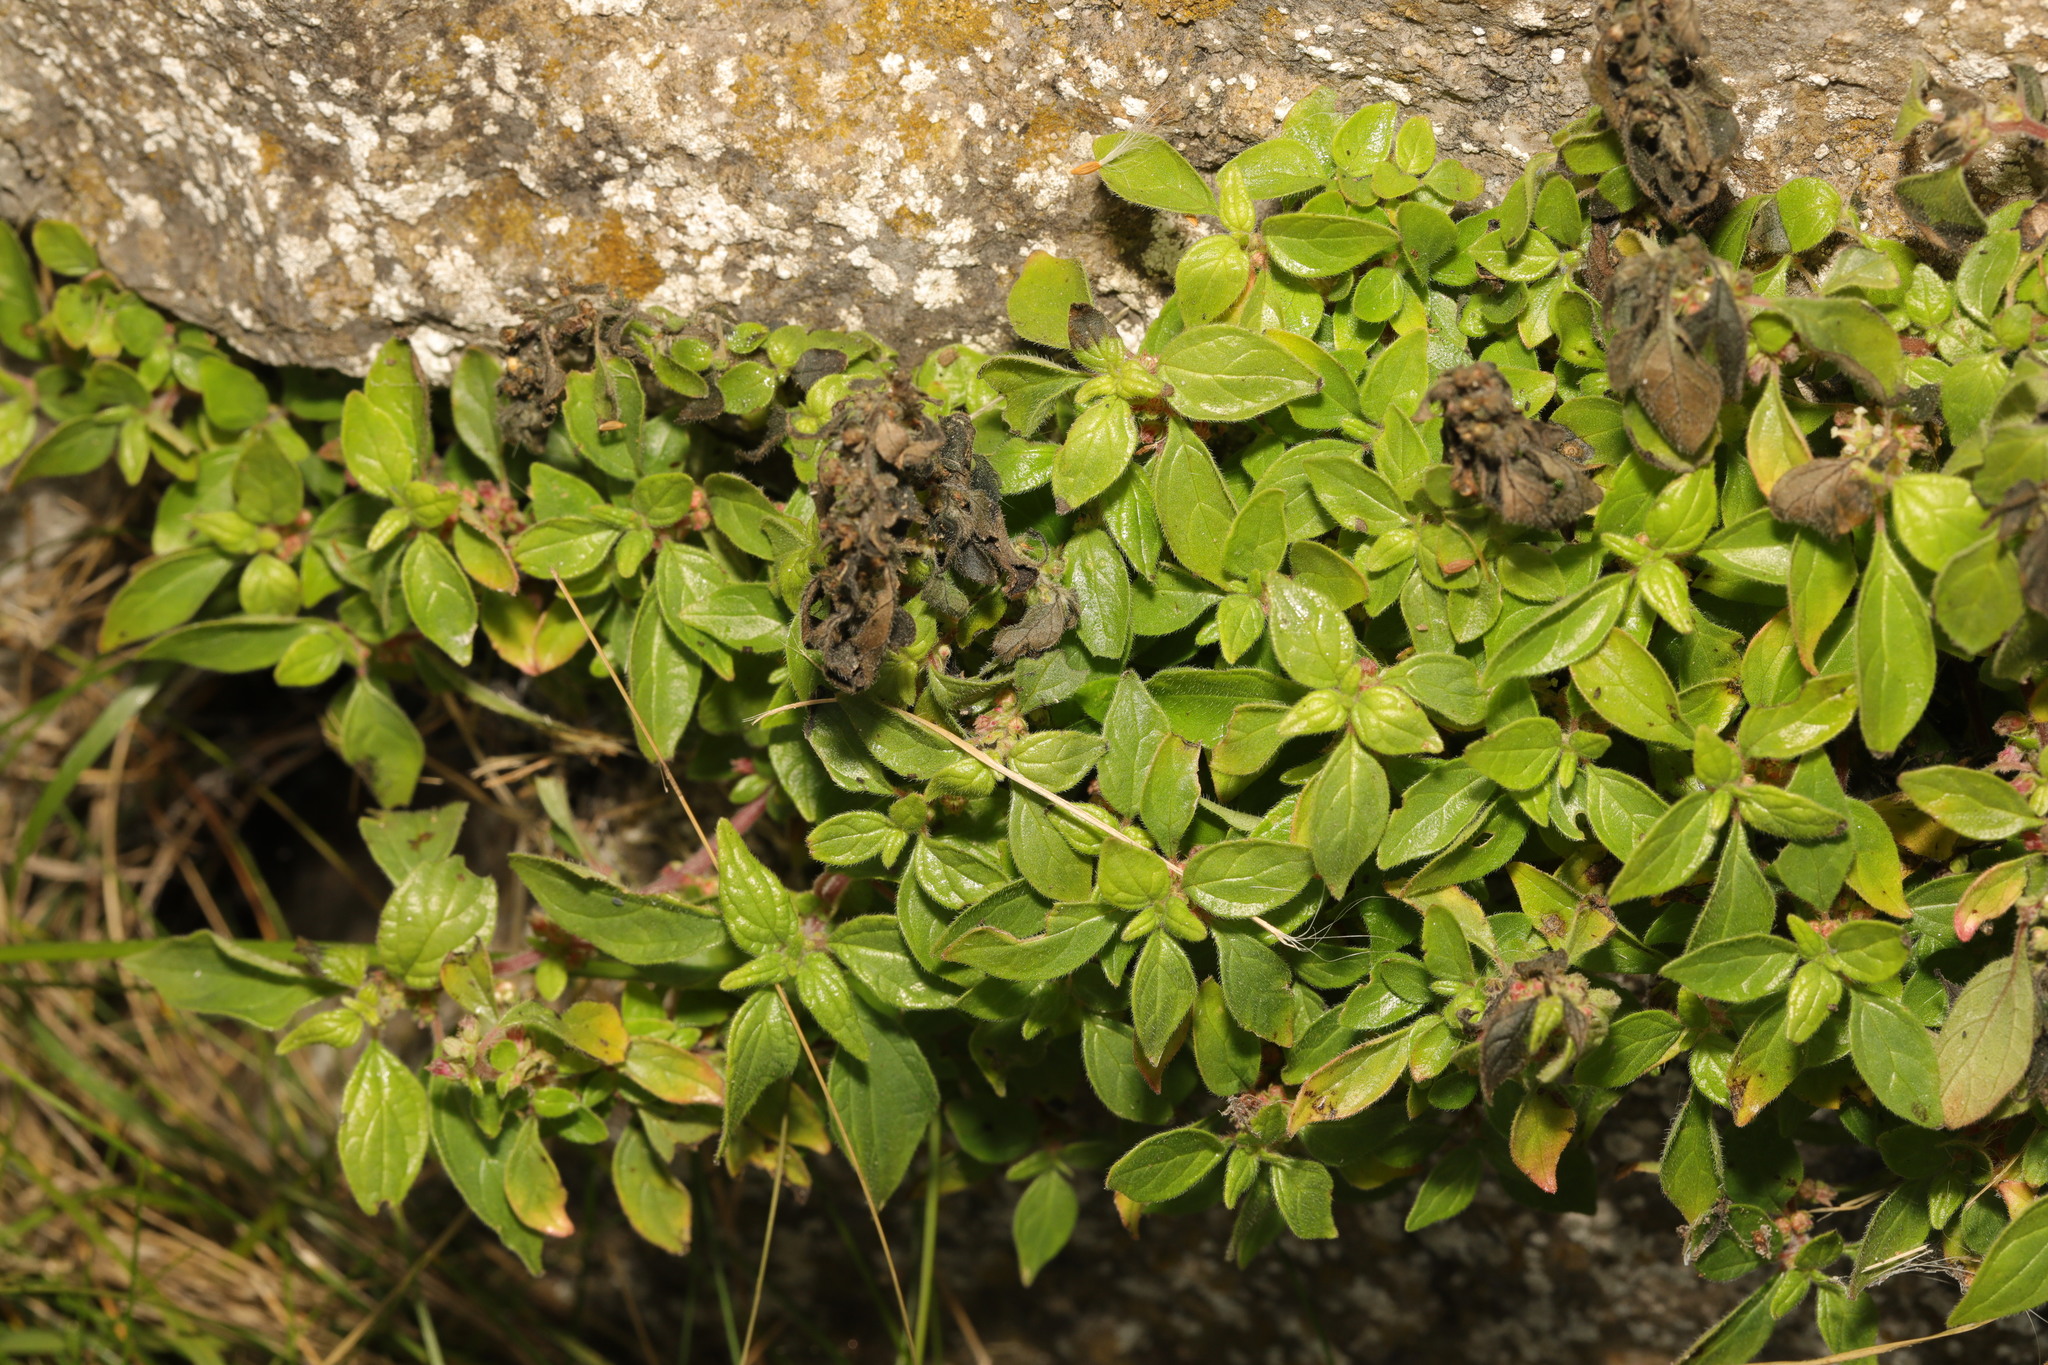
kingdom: Plantae
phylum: Tracheophyta
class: Magnoliopsida
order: Rosales
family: Urticaceae
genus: Parietaria
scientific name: Parietaria judaica
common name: Pellitory-of-the-wall
